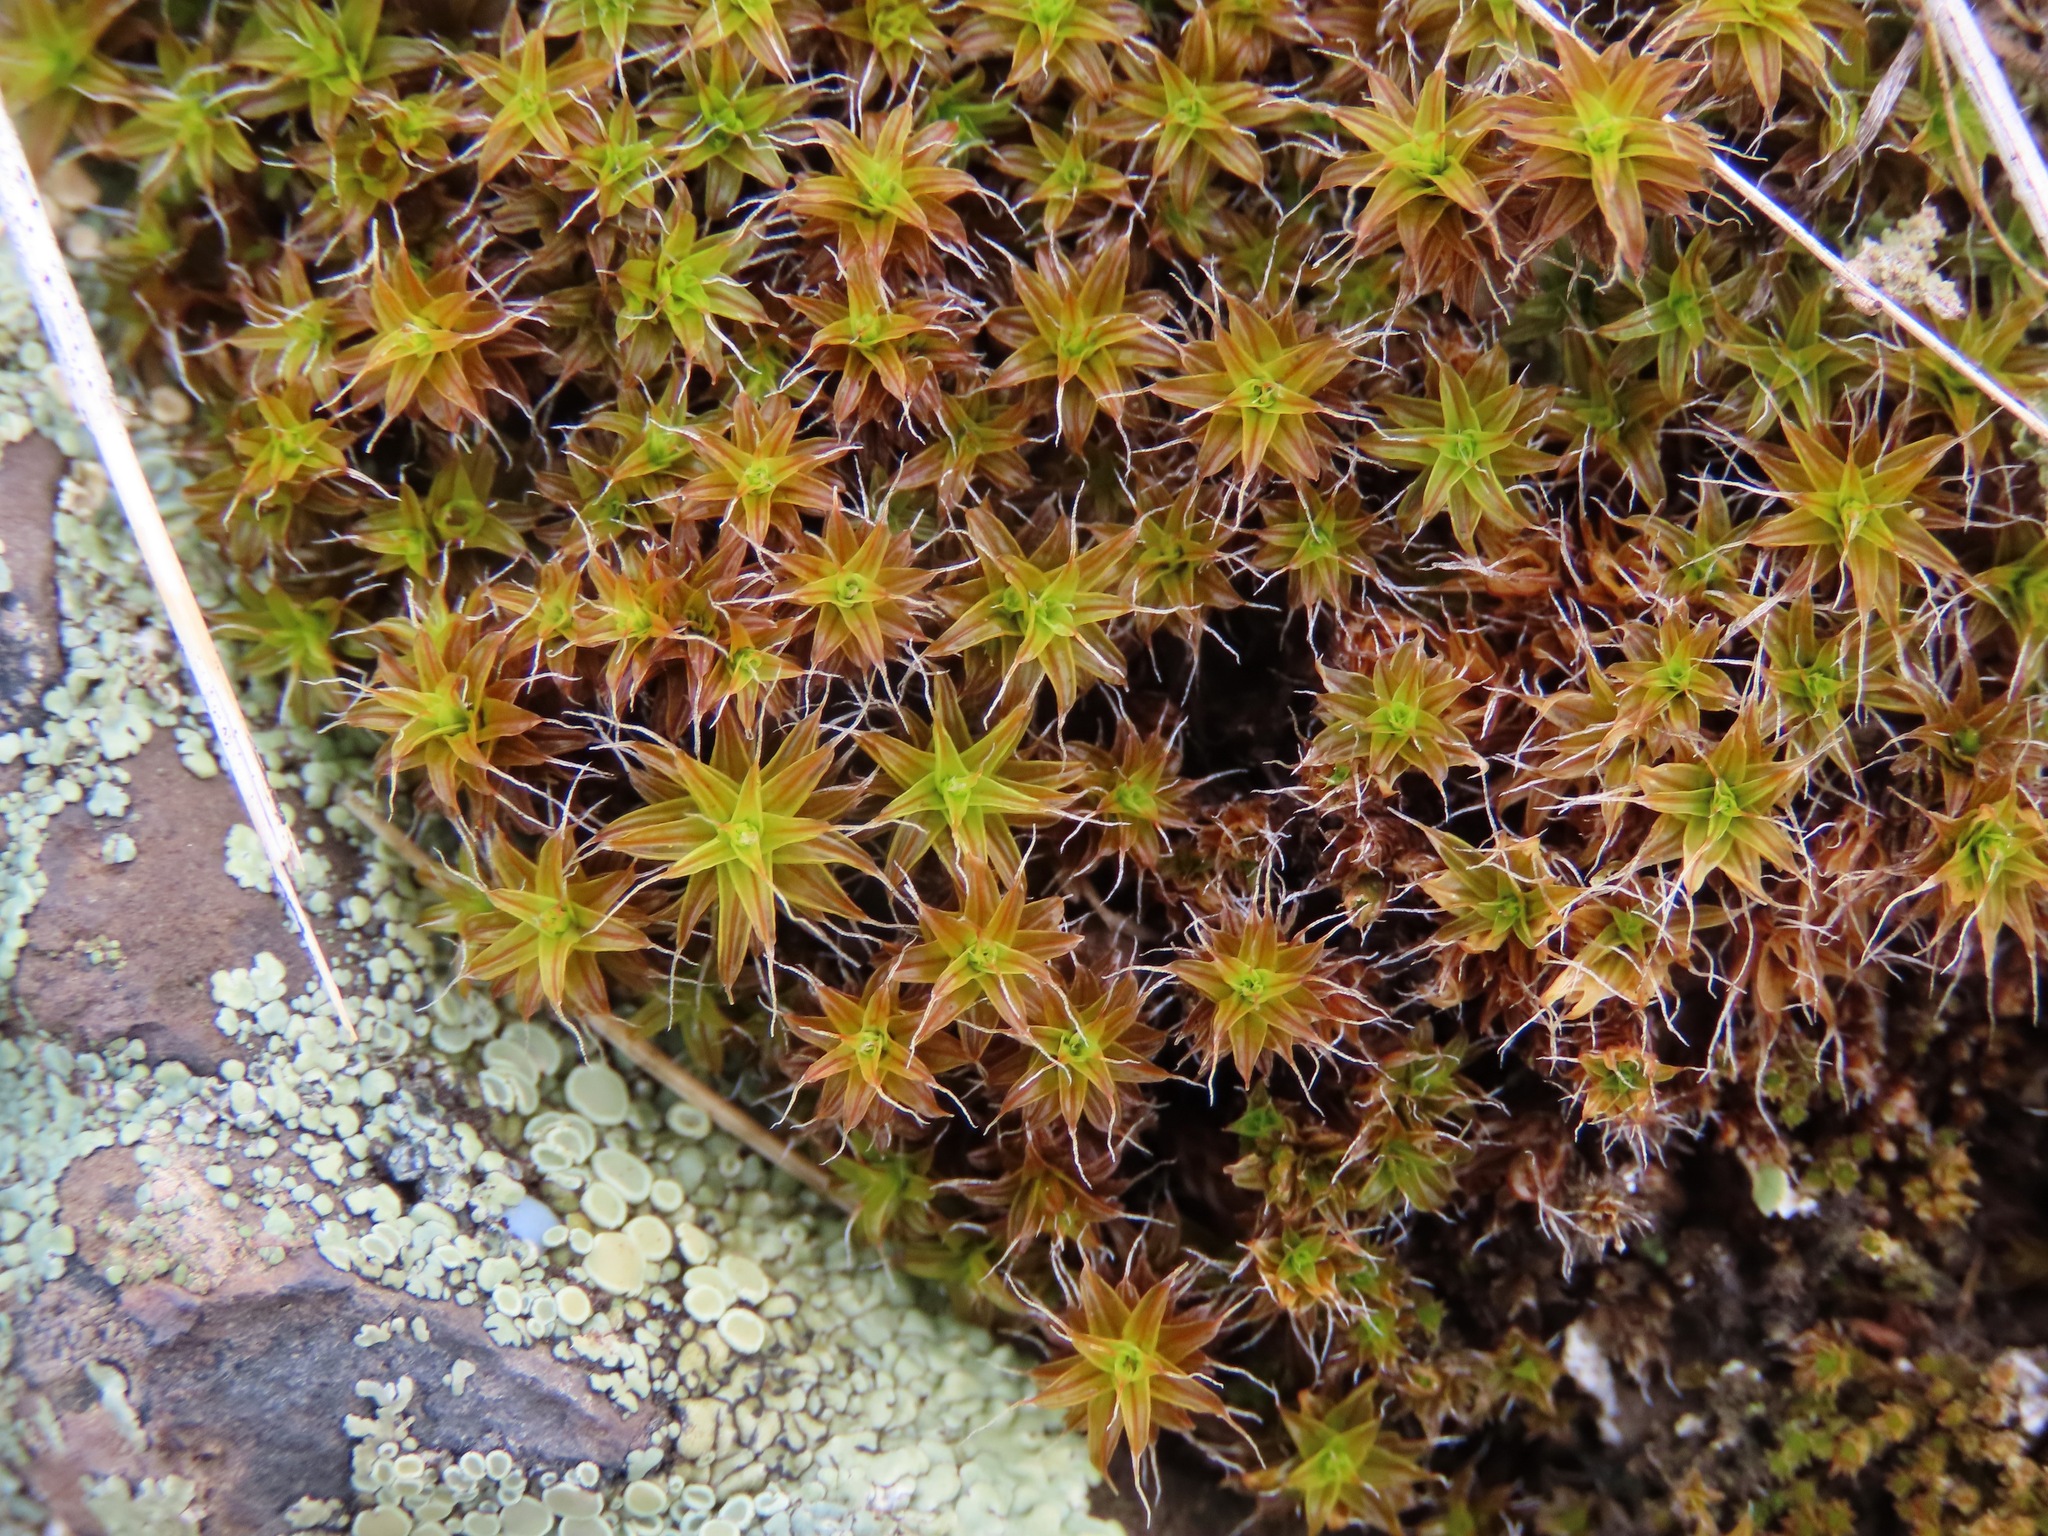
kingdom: Plantae
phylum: Bryophyta
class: Bryopsida
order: Pottiales
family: Pottiaceae
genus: Syntrichia
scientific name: Syntrichia ruralis
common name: Sidewalk screw moss
